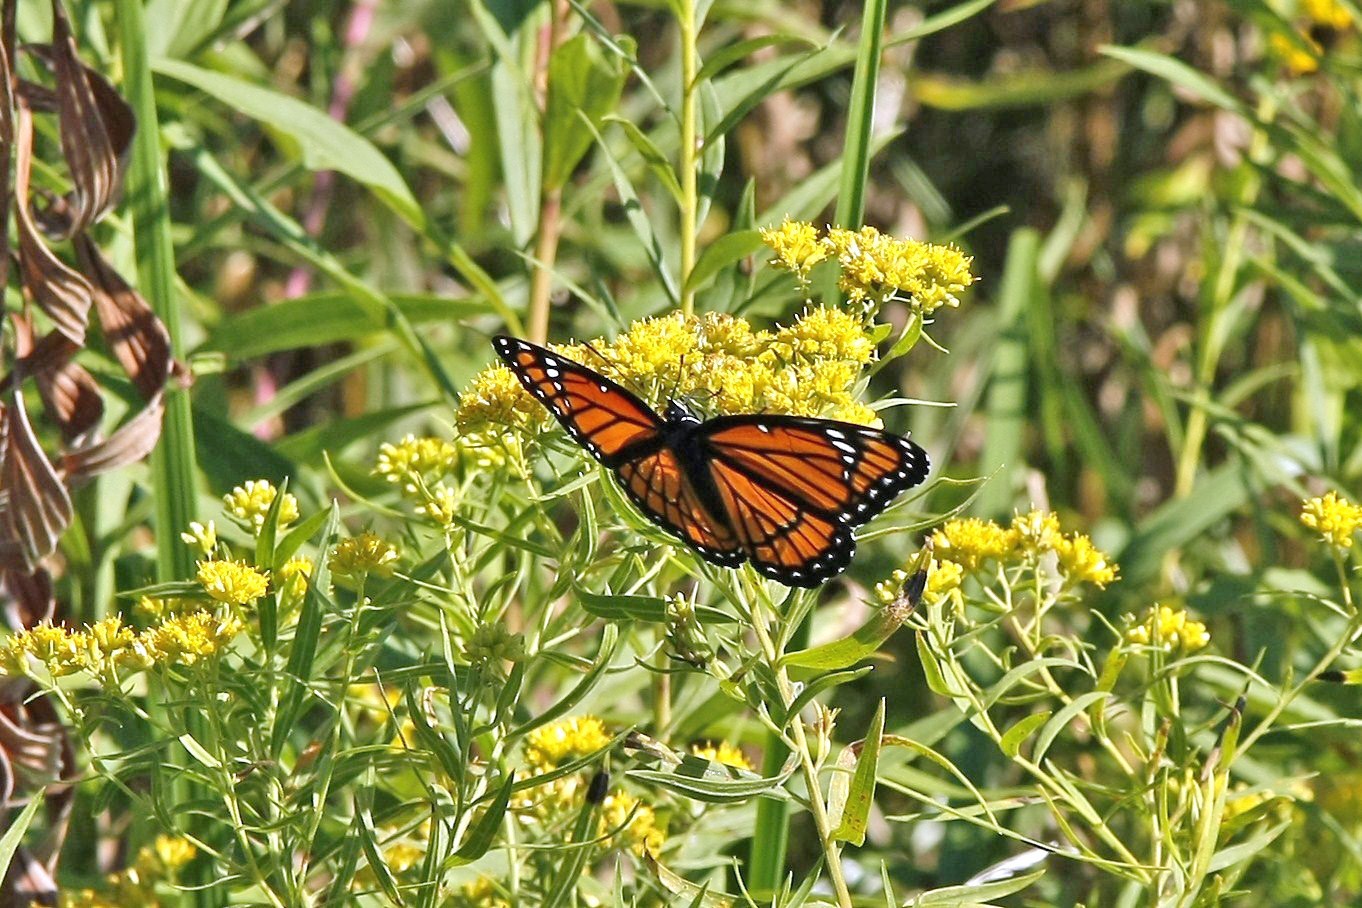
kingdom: Animalia
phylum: Arthropoda
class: Insecta
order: Lepidoptera
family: Nymphalidae
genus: Limenitis
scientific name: Limenitis archippus
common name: Viceroy
